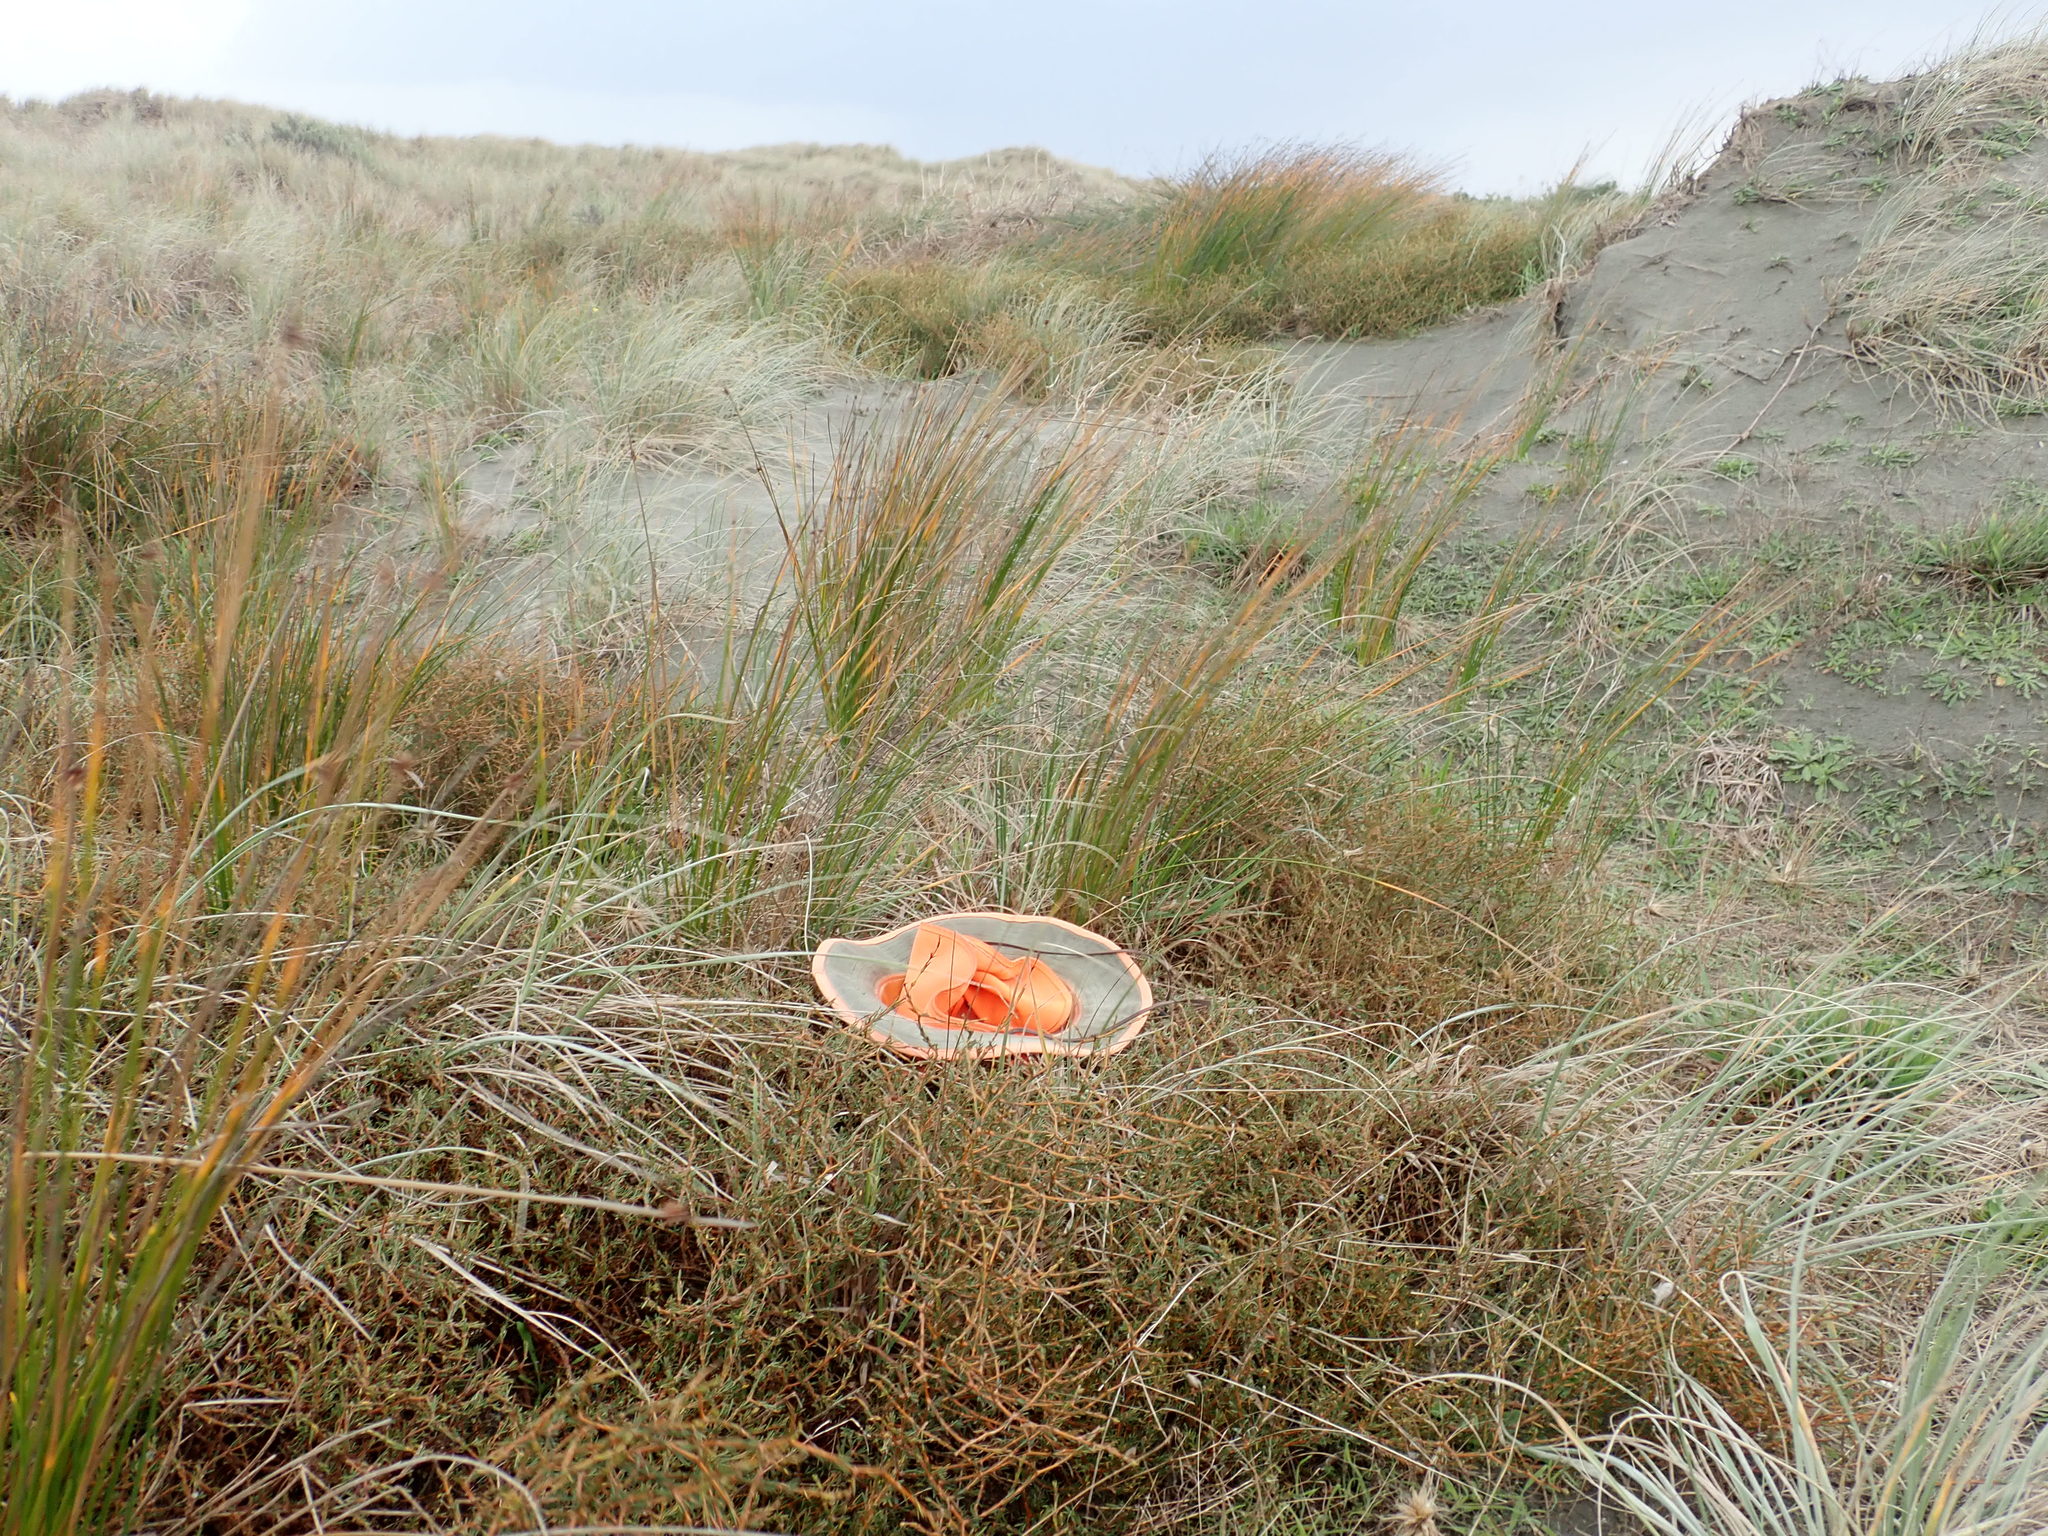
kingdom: Plantae
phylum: Tracheophyta
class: Magnoliopsida
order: Gentianales
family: Rubiaceae
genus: Coprosma
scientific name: Coprosma acerosa
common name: Sand coprosma
